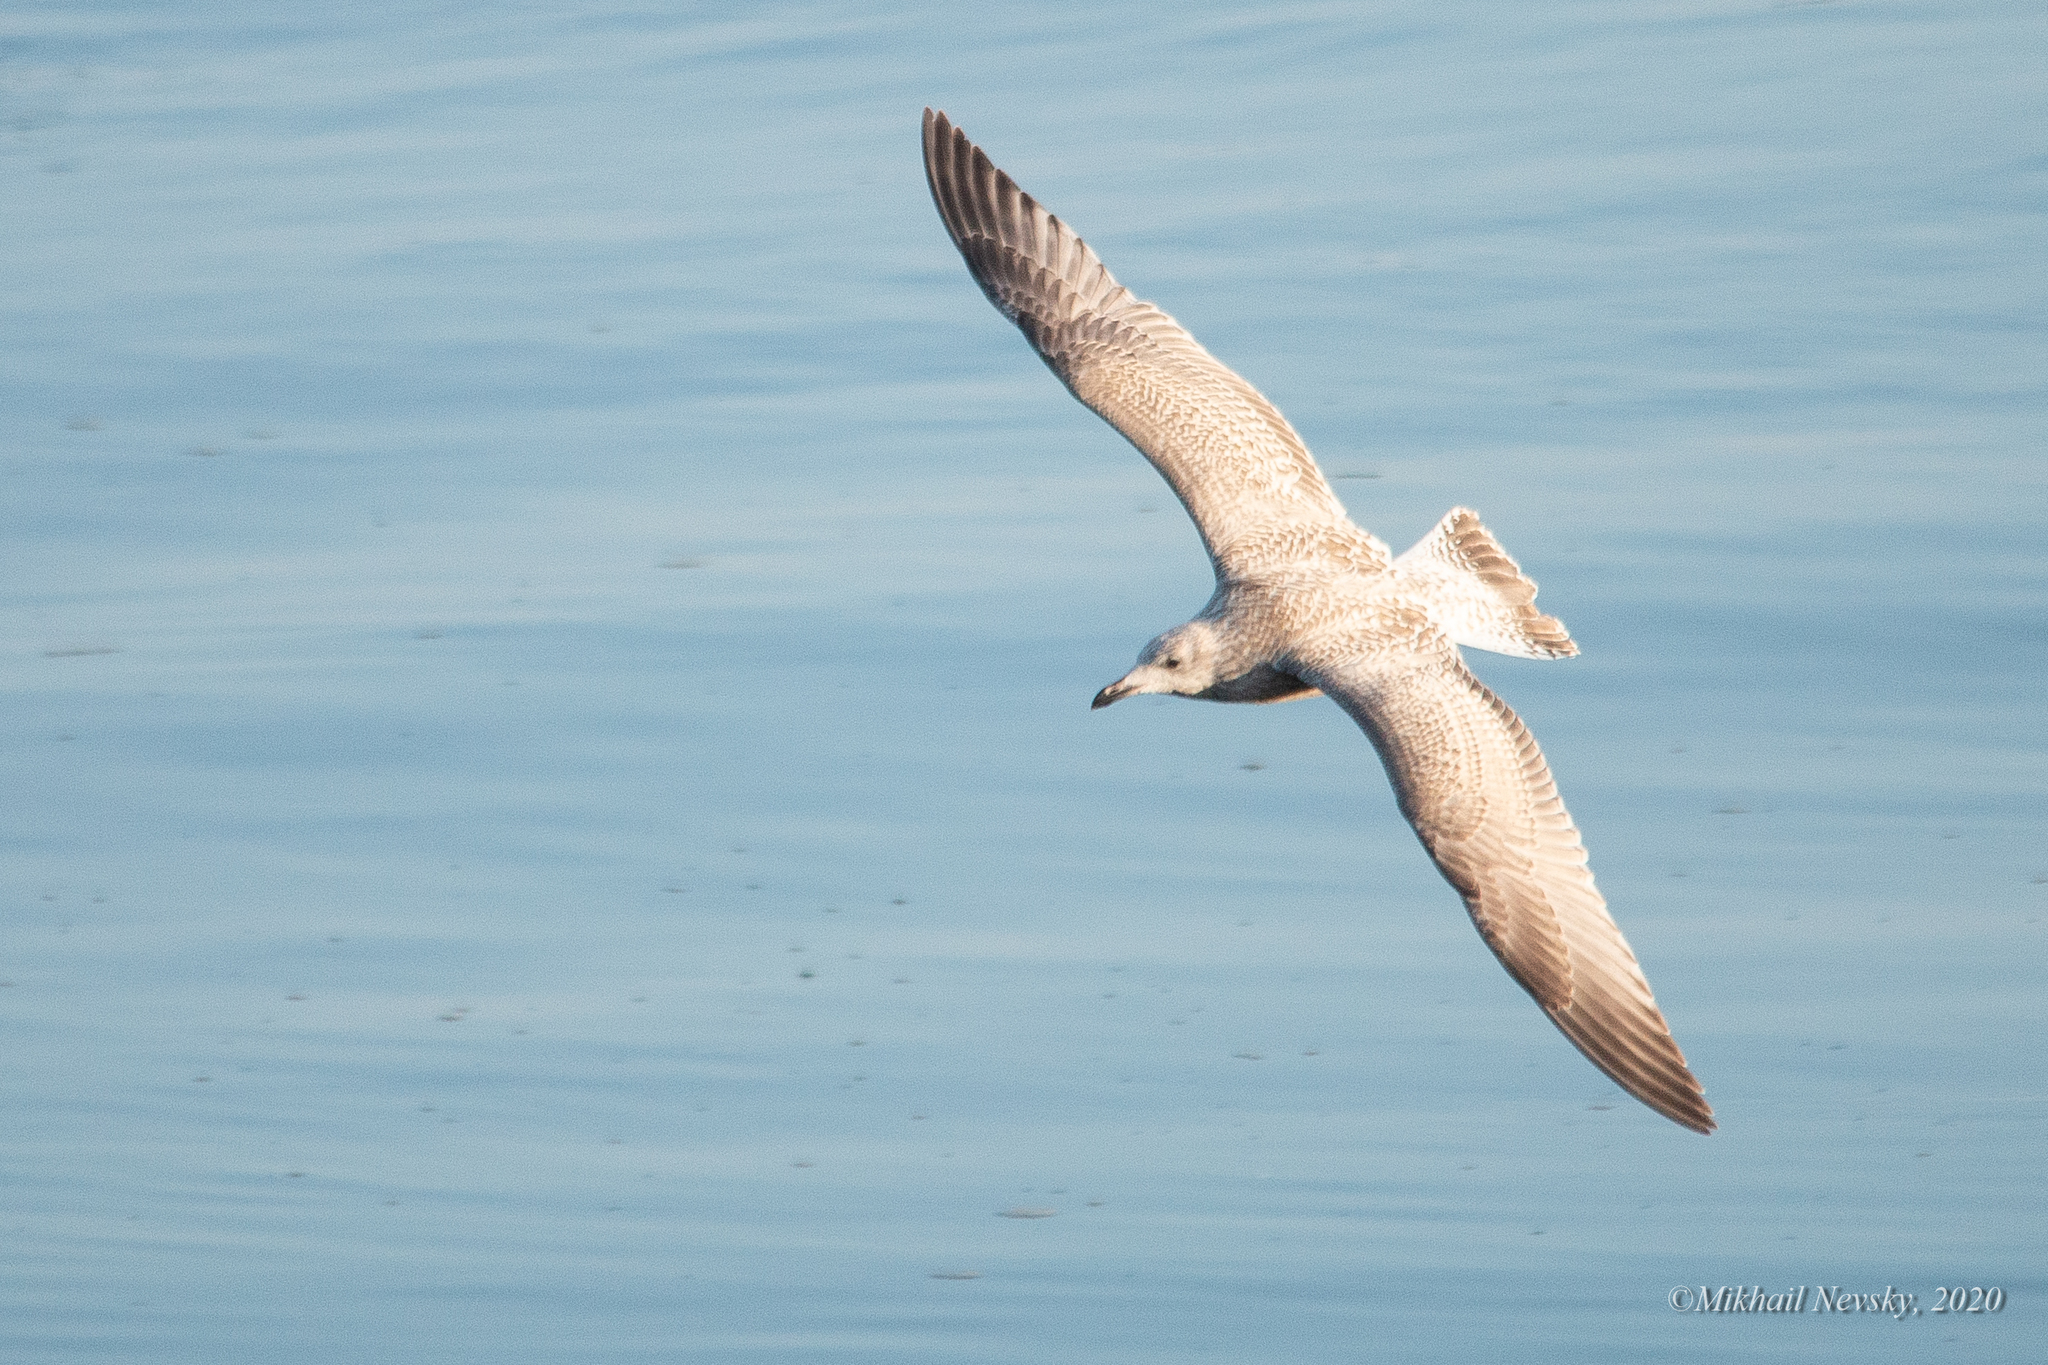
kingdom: Animalia
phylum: Chordata
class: Aves
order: Charadriiformes
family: Laridae
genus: Larus
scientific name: Larus argentatus
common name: Herring gull
